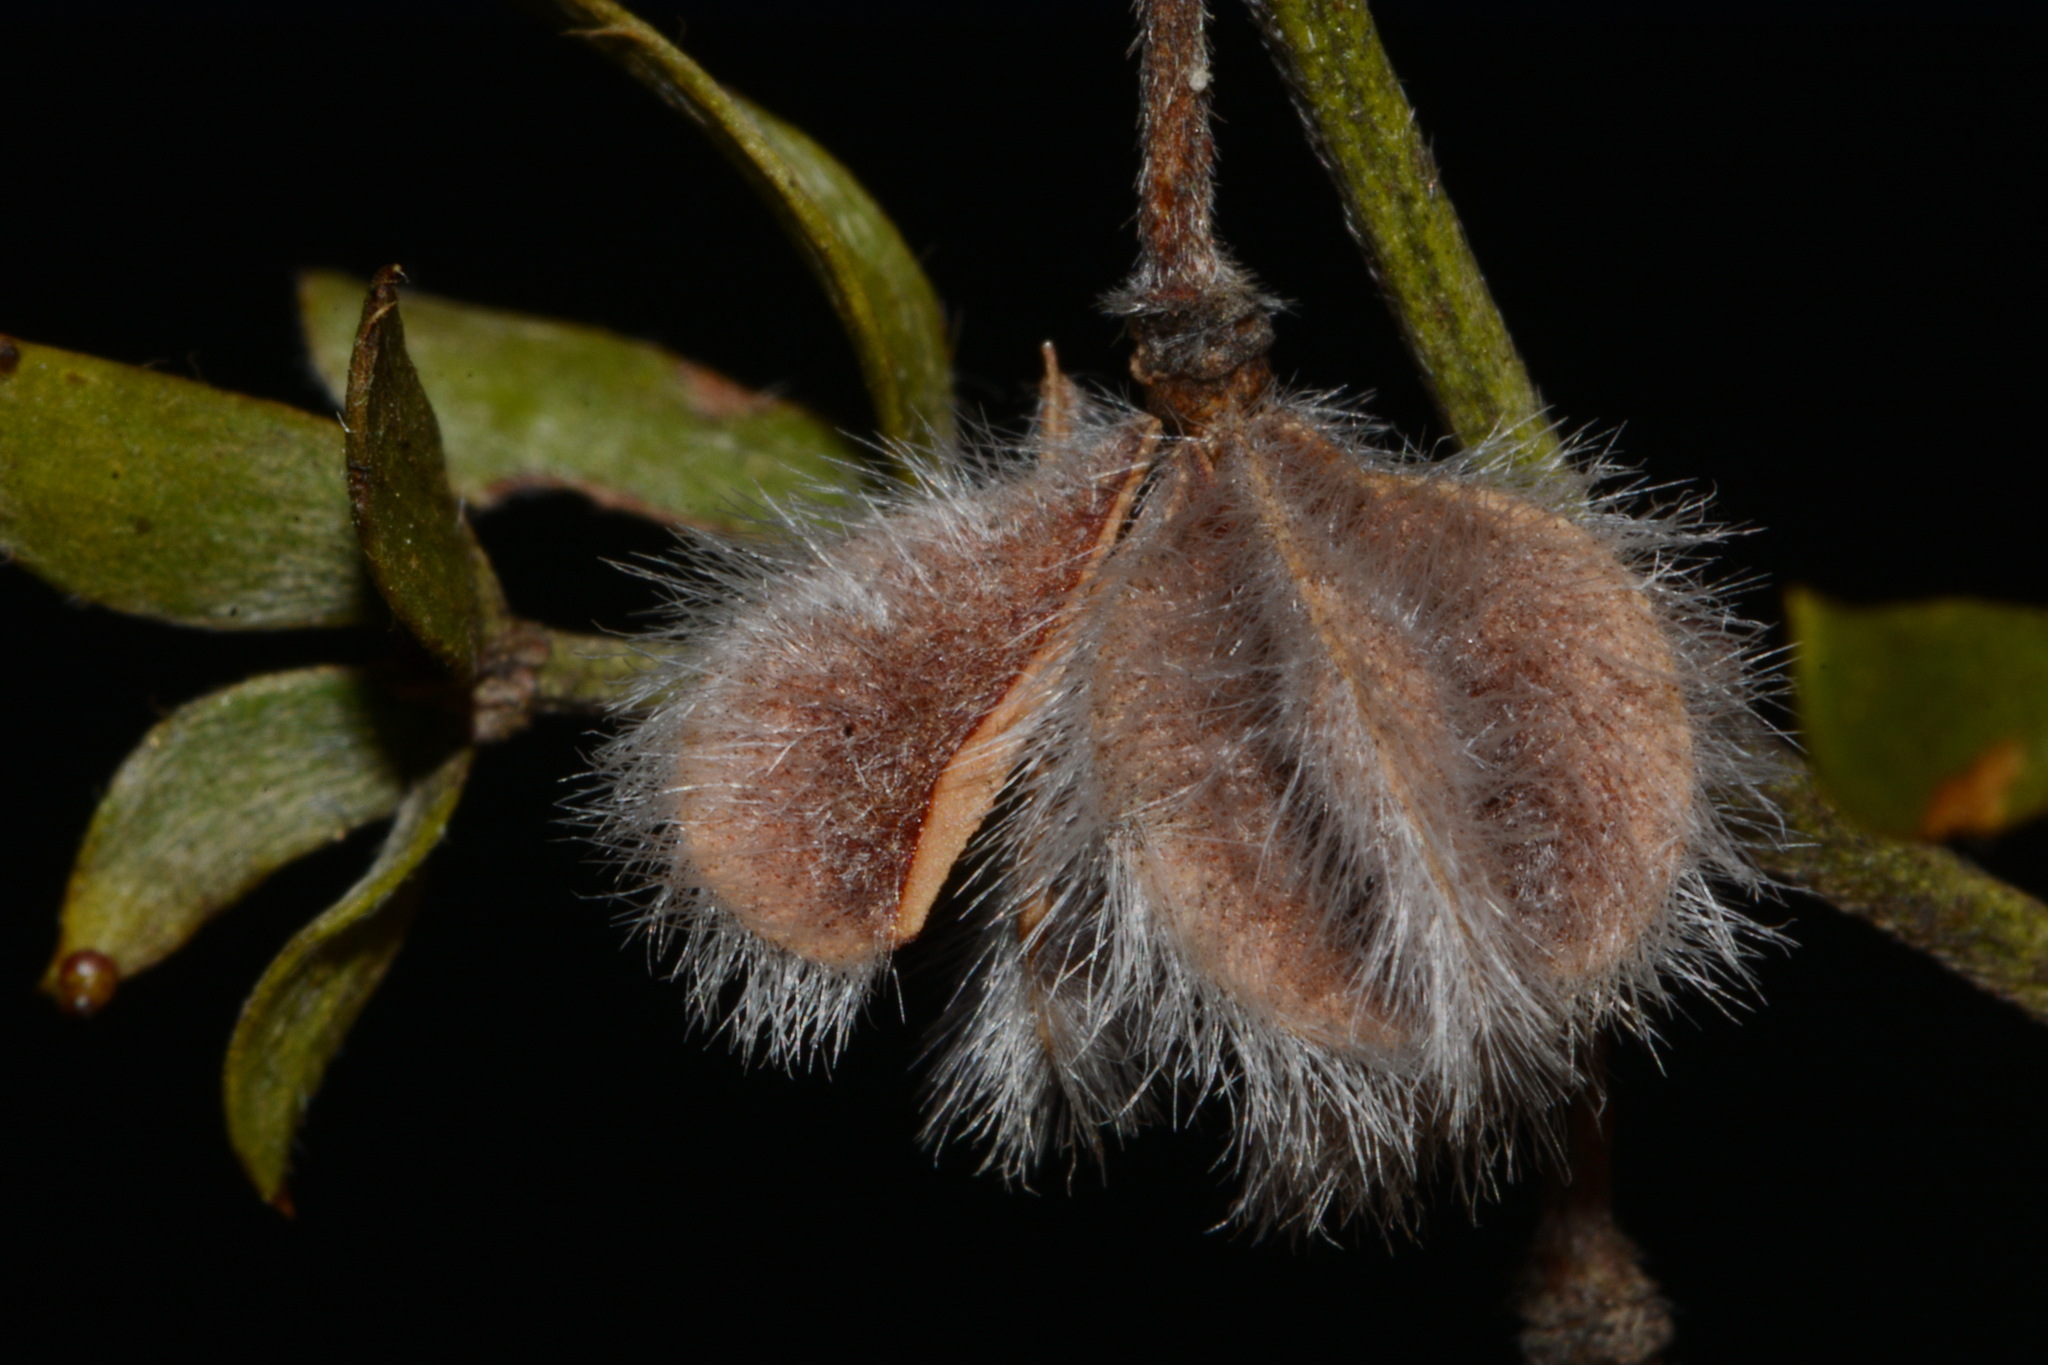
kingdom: Plantae
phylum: Tracheophyta
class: Magnoliopsida
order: Zygophyllales
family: Zygophyllaceae
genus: Larrea
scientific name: Larrea tridentata
